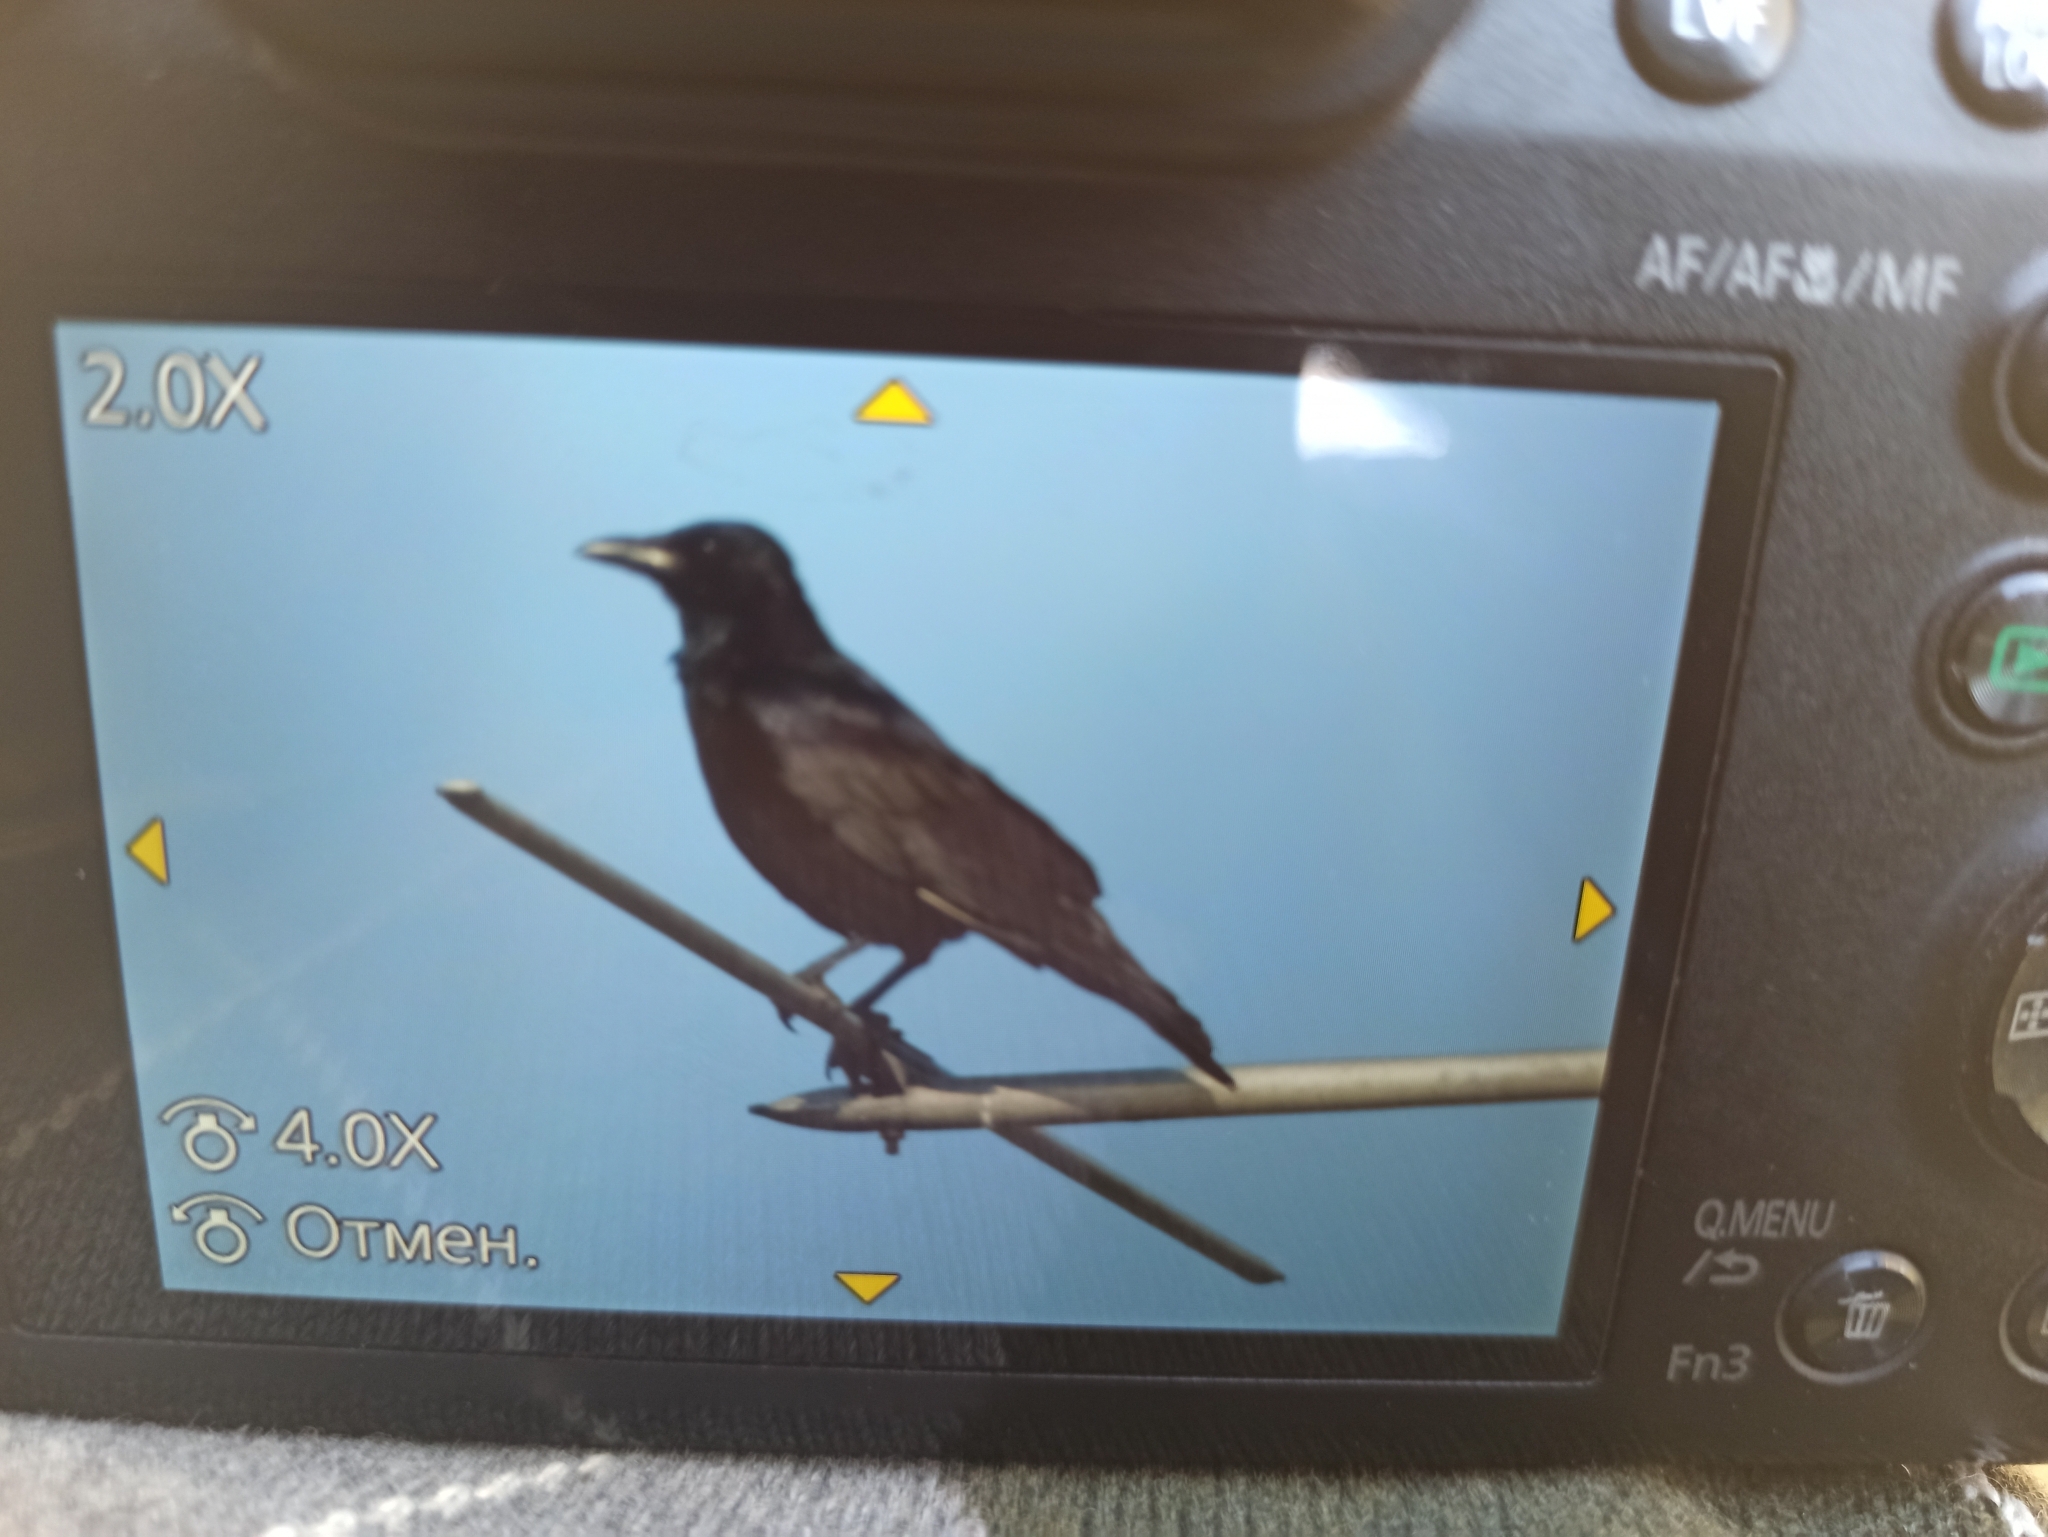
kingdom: Animalia
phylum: Chordata
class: Aves
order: Passeriformes
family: Corvidae
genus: Corvus
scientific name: Corvus corone
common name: Carrion crow
